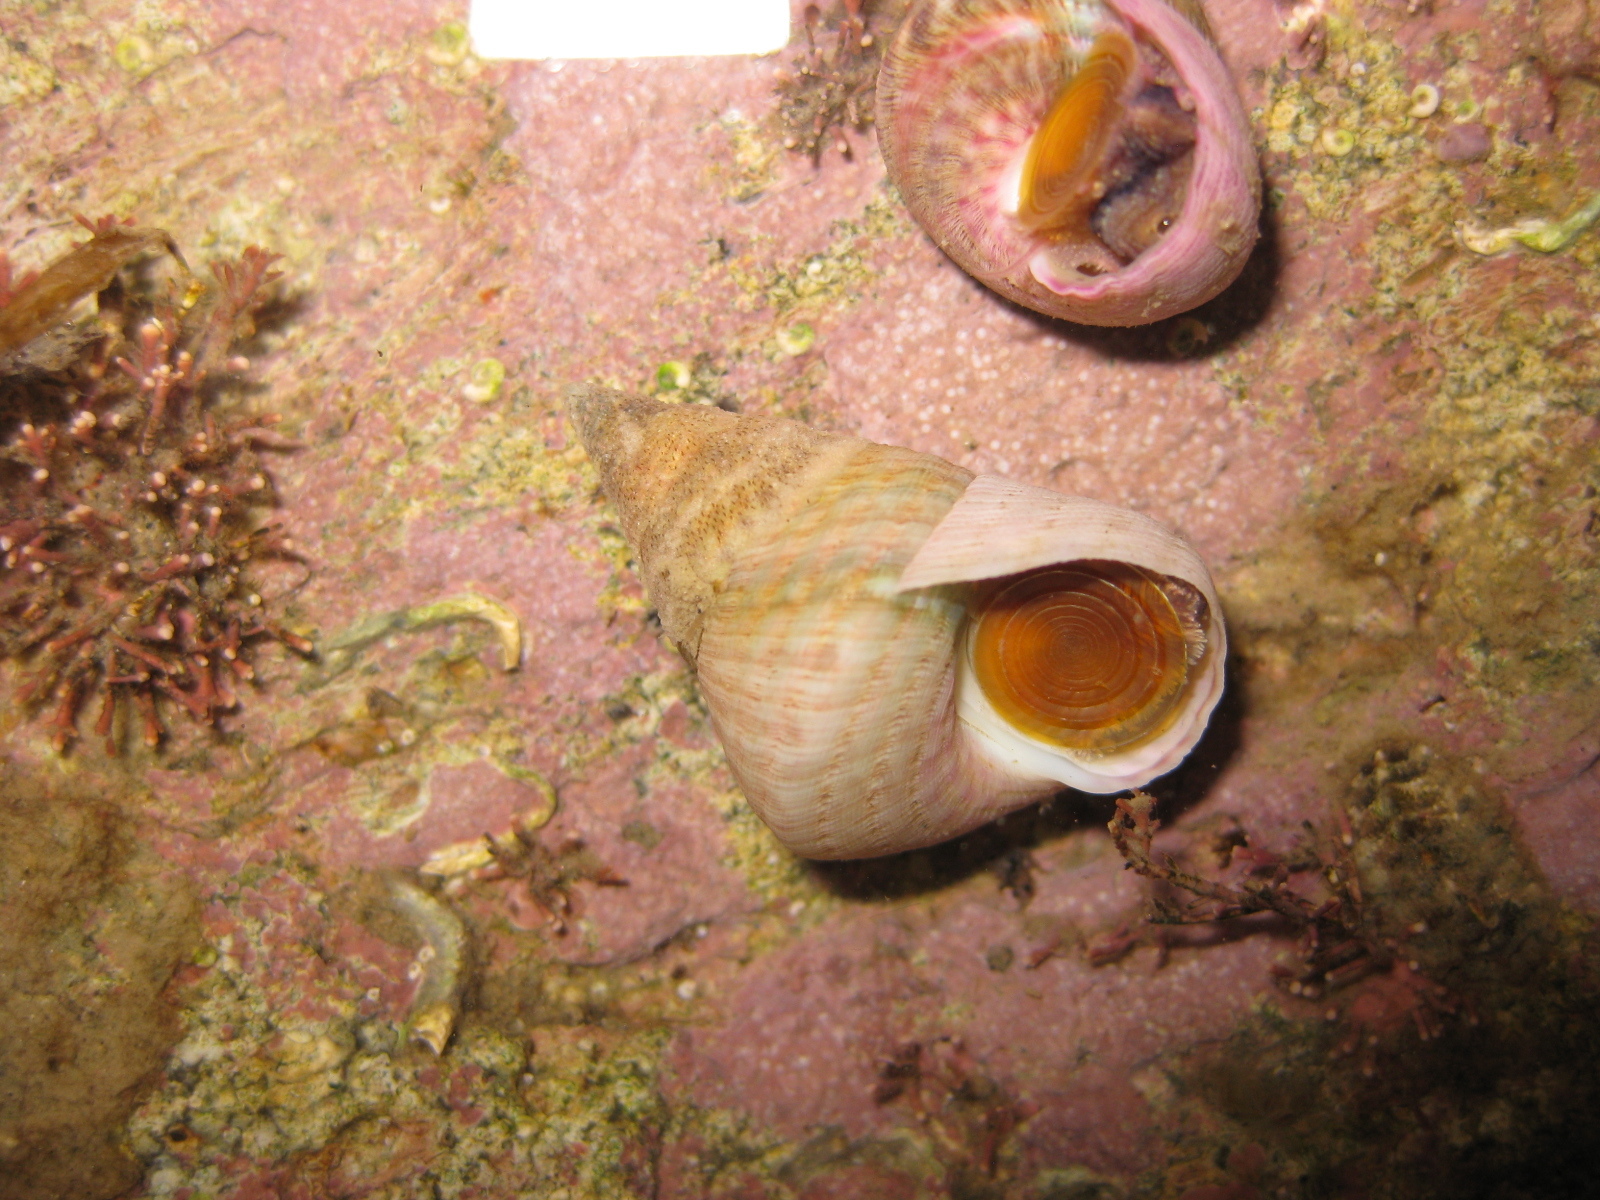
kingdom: Animalia
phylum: Mollusca
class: Gastropoda
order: Trochida
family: Trochidae
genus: Micrelenchus
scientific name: Micrelenchus purpureus
